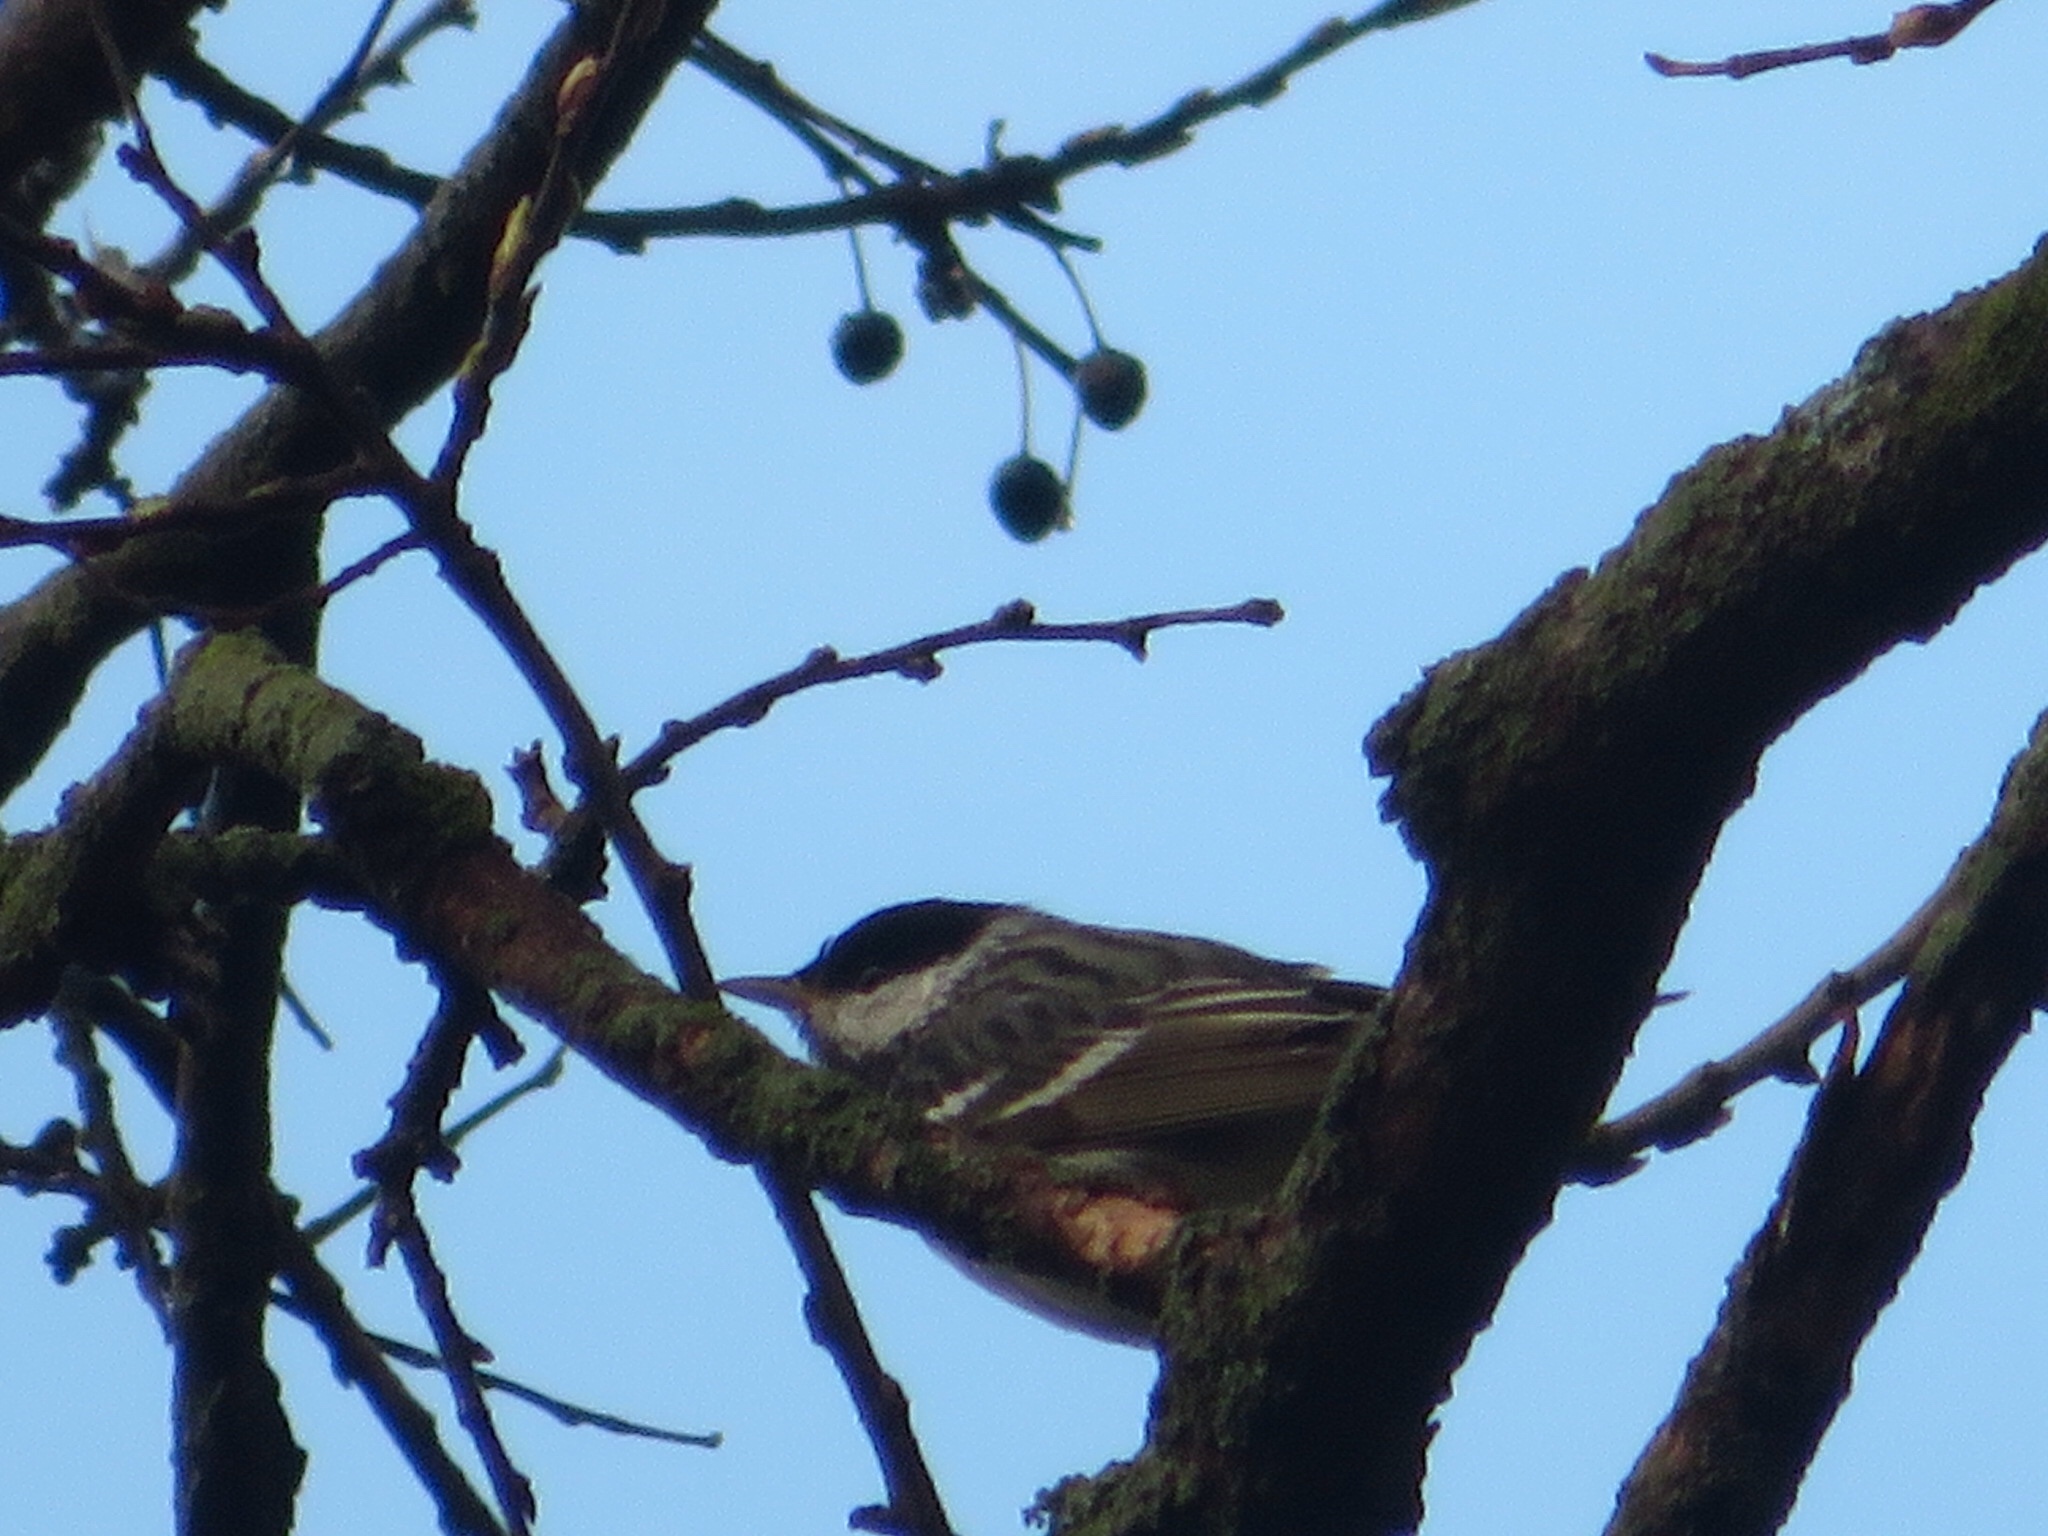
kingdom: Animalia
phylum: Chordata
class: Aves
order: Passeriformes
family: Parulidae
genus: Setophaga
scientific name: Setophaga striata
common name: Blackpoll warbler
